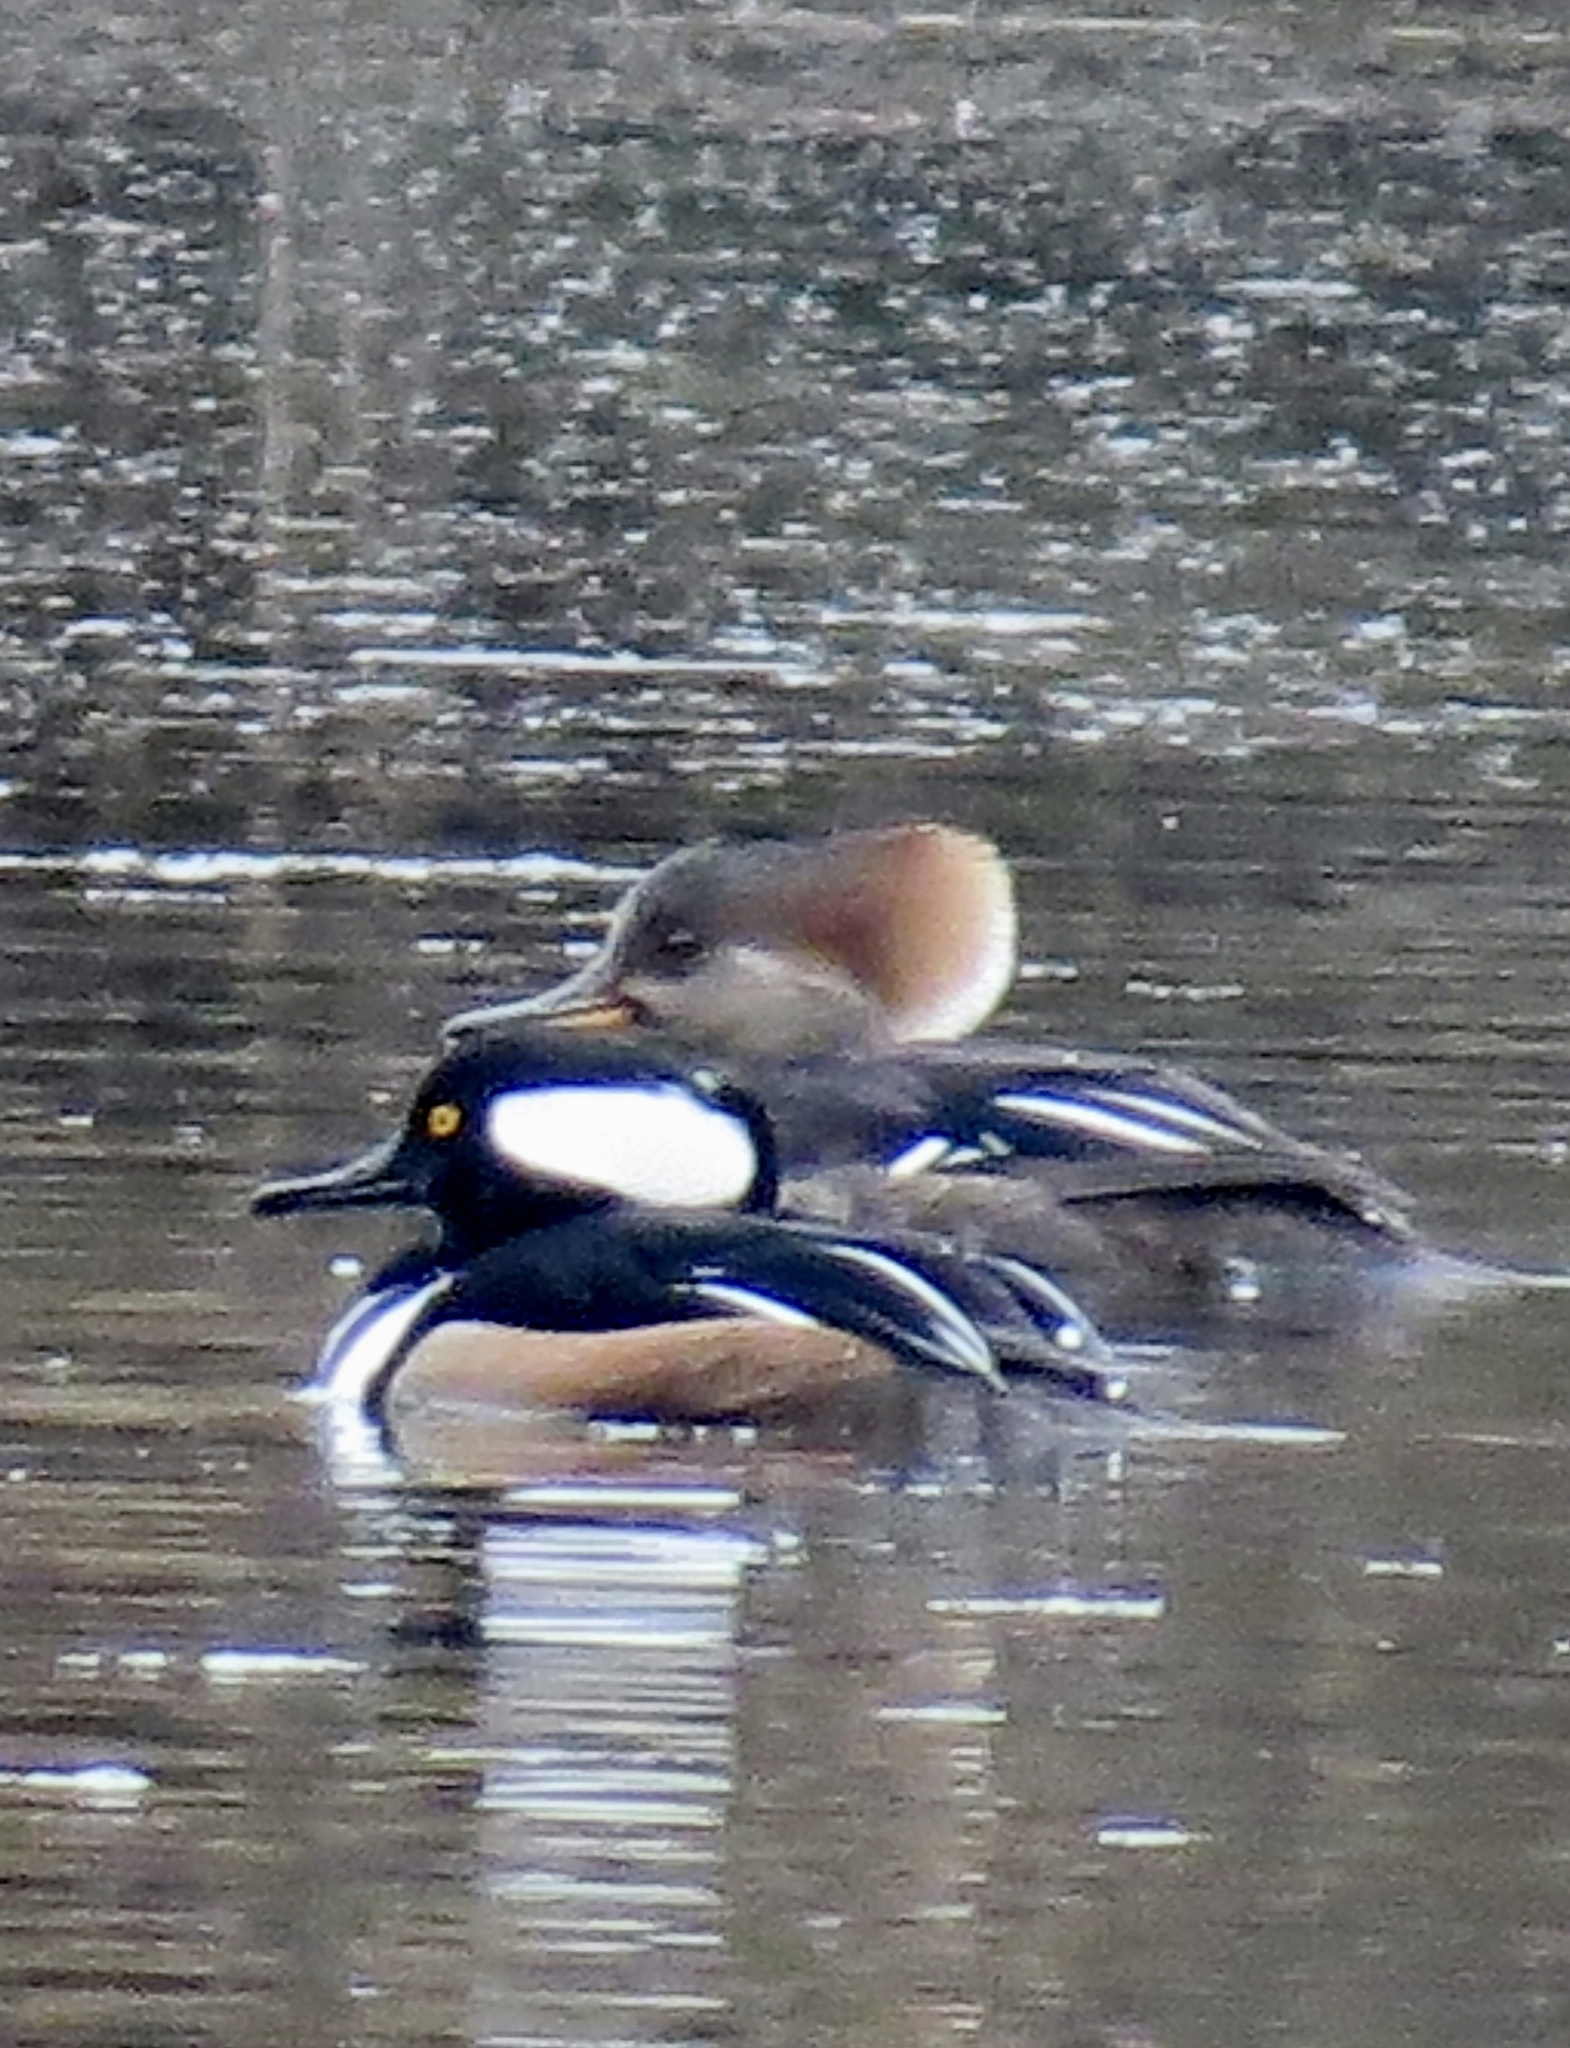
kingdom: Animalia
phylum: Chordata
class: Aves
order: Anseriformes
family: Anatidae
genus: Lophodytes
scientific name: Lophodytes cucullatus
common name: Hooded merganser
